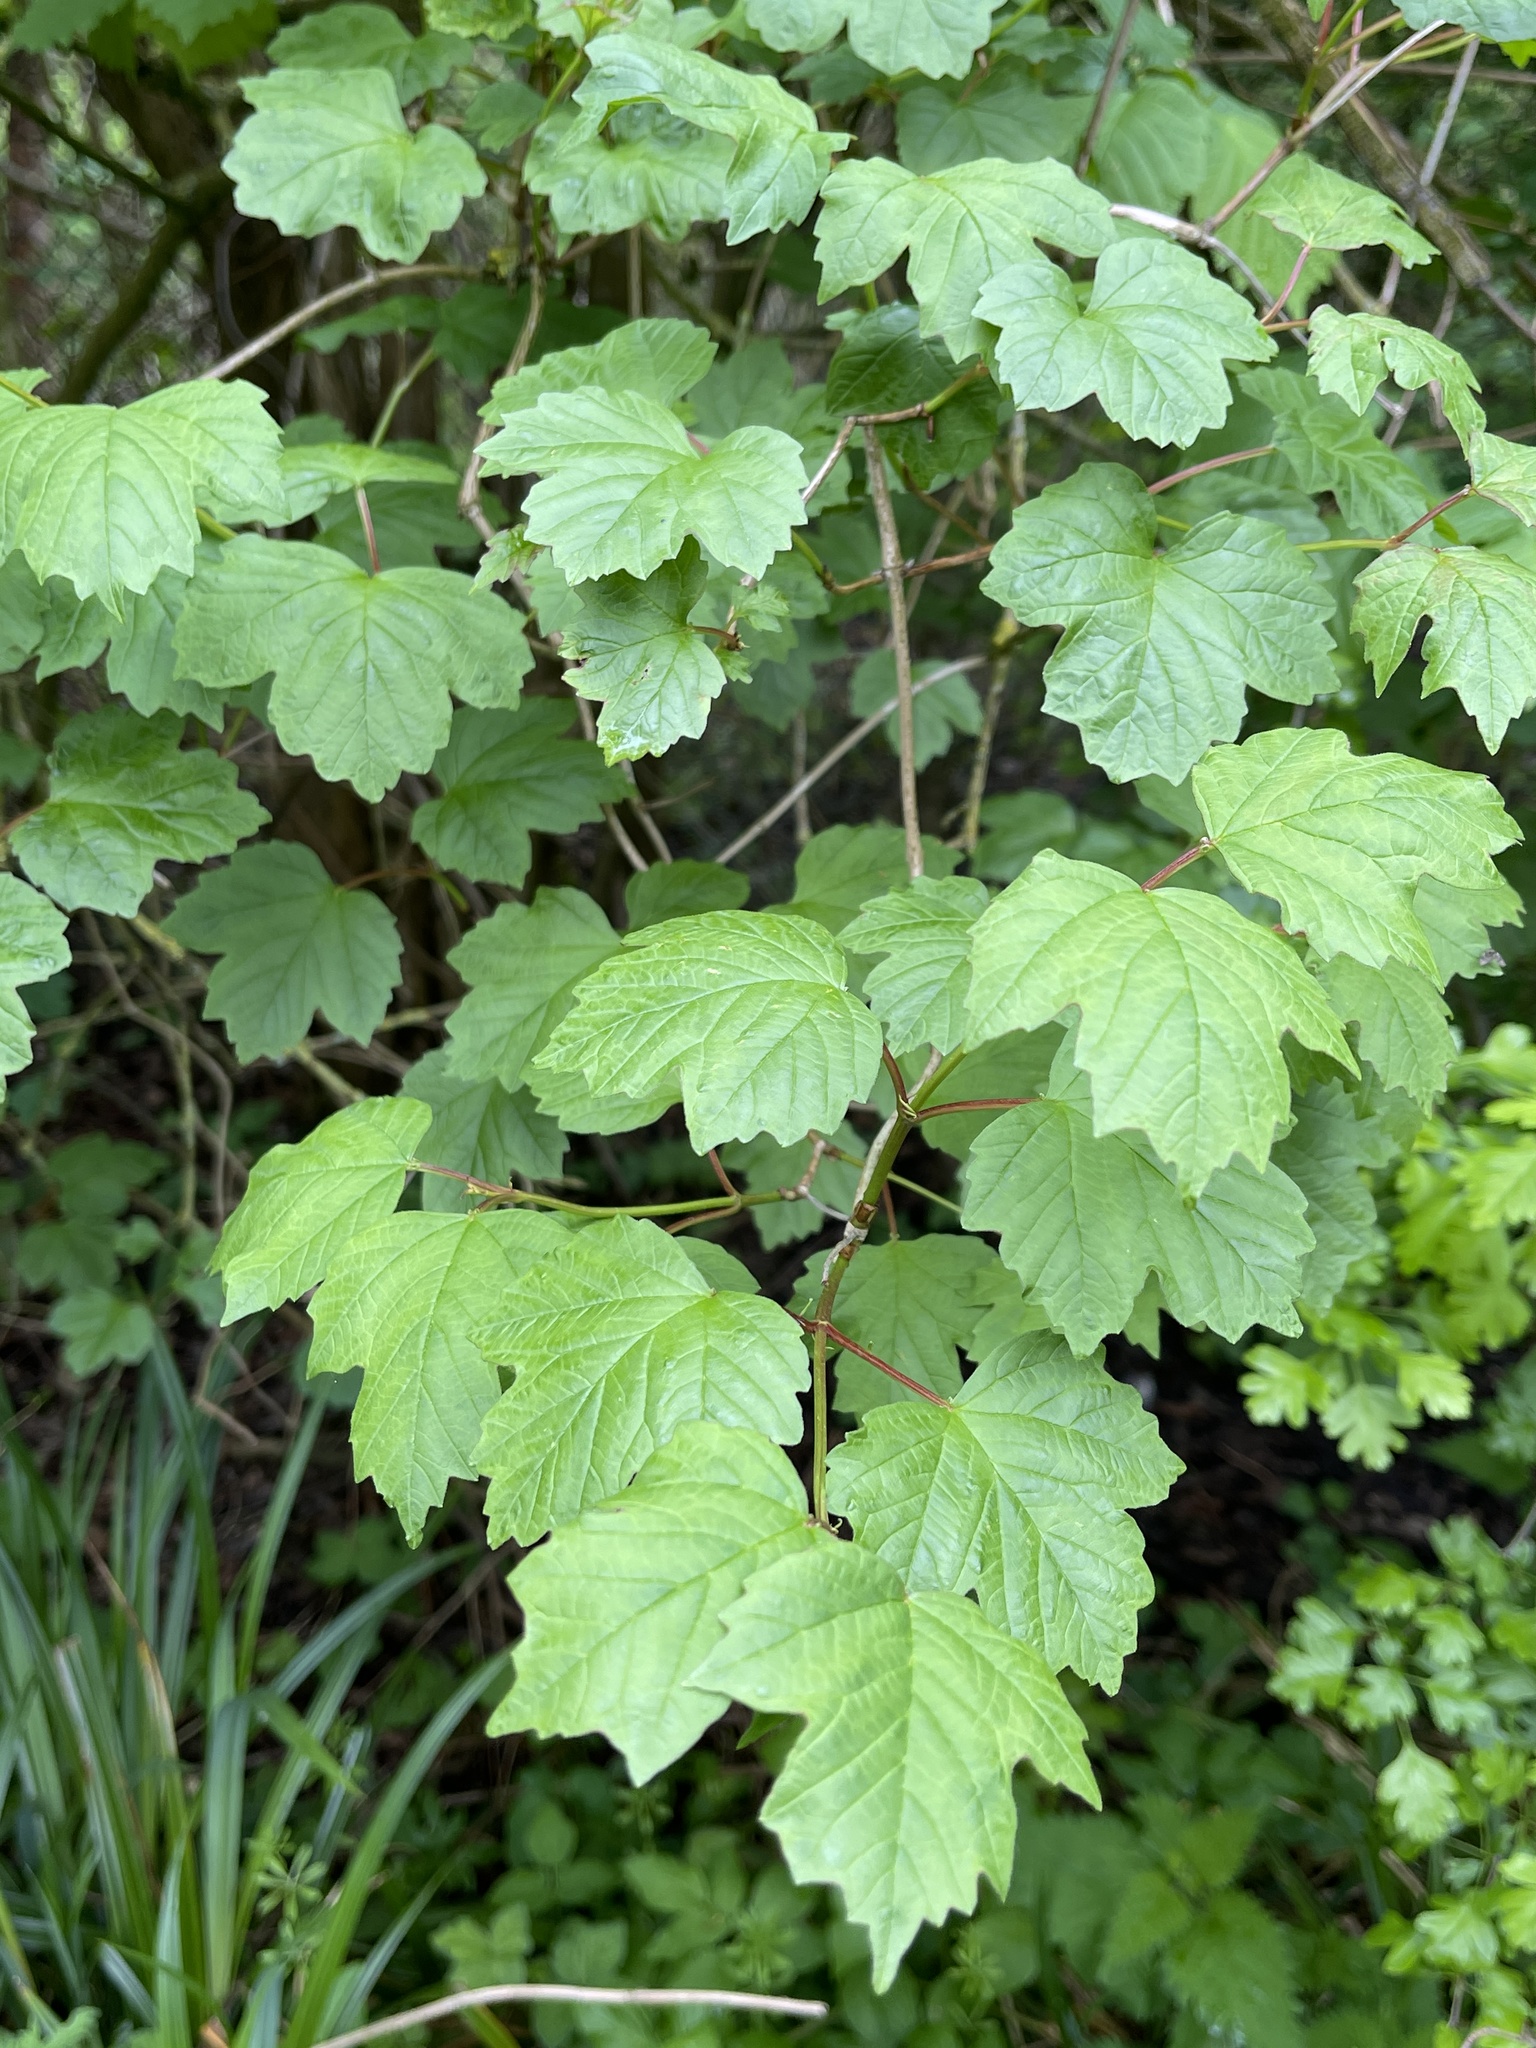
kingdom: Plantae
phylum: Tracheophyta
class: Magnoliopsida
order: Dipsacales
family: Viburnaceae
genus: Viburnum
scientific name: Viburnum opulus
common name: Guelder-rose
